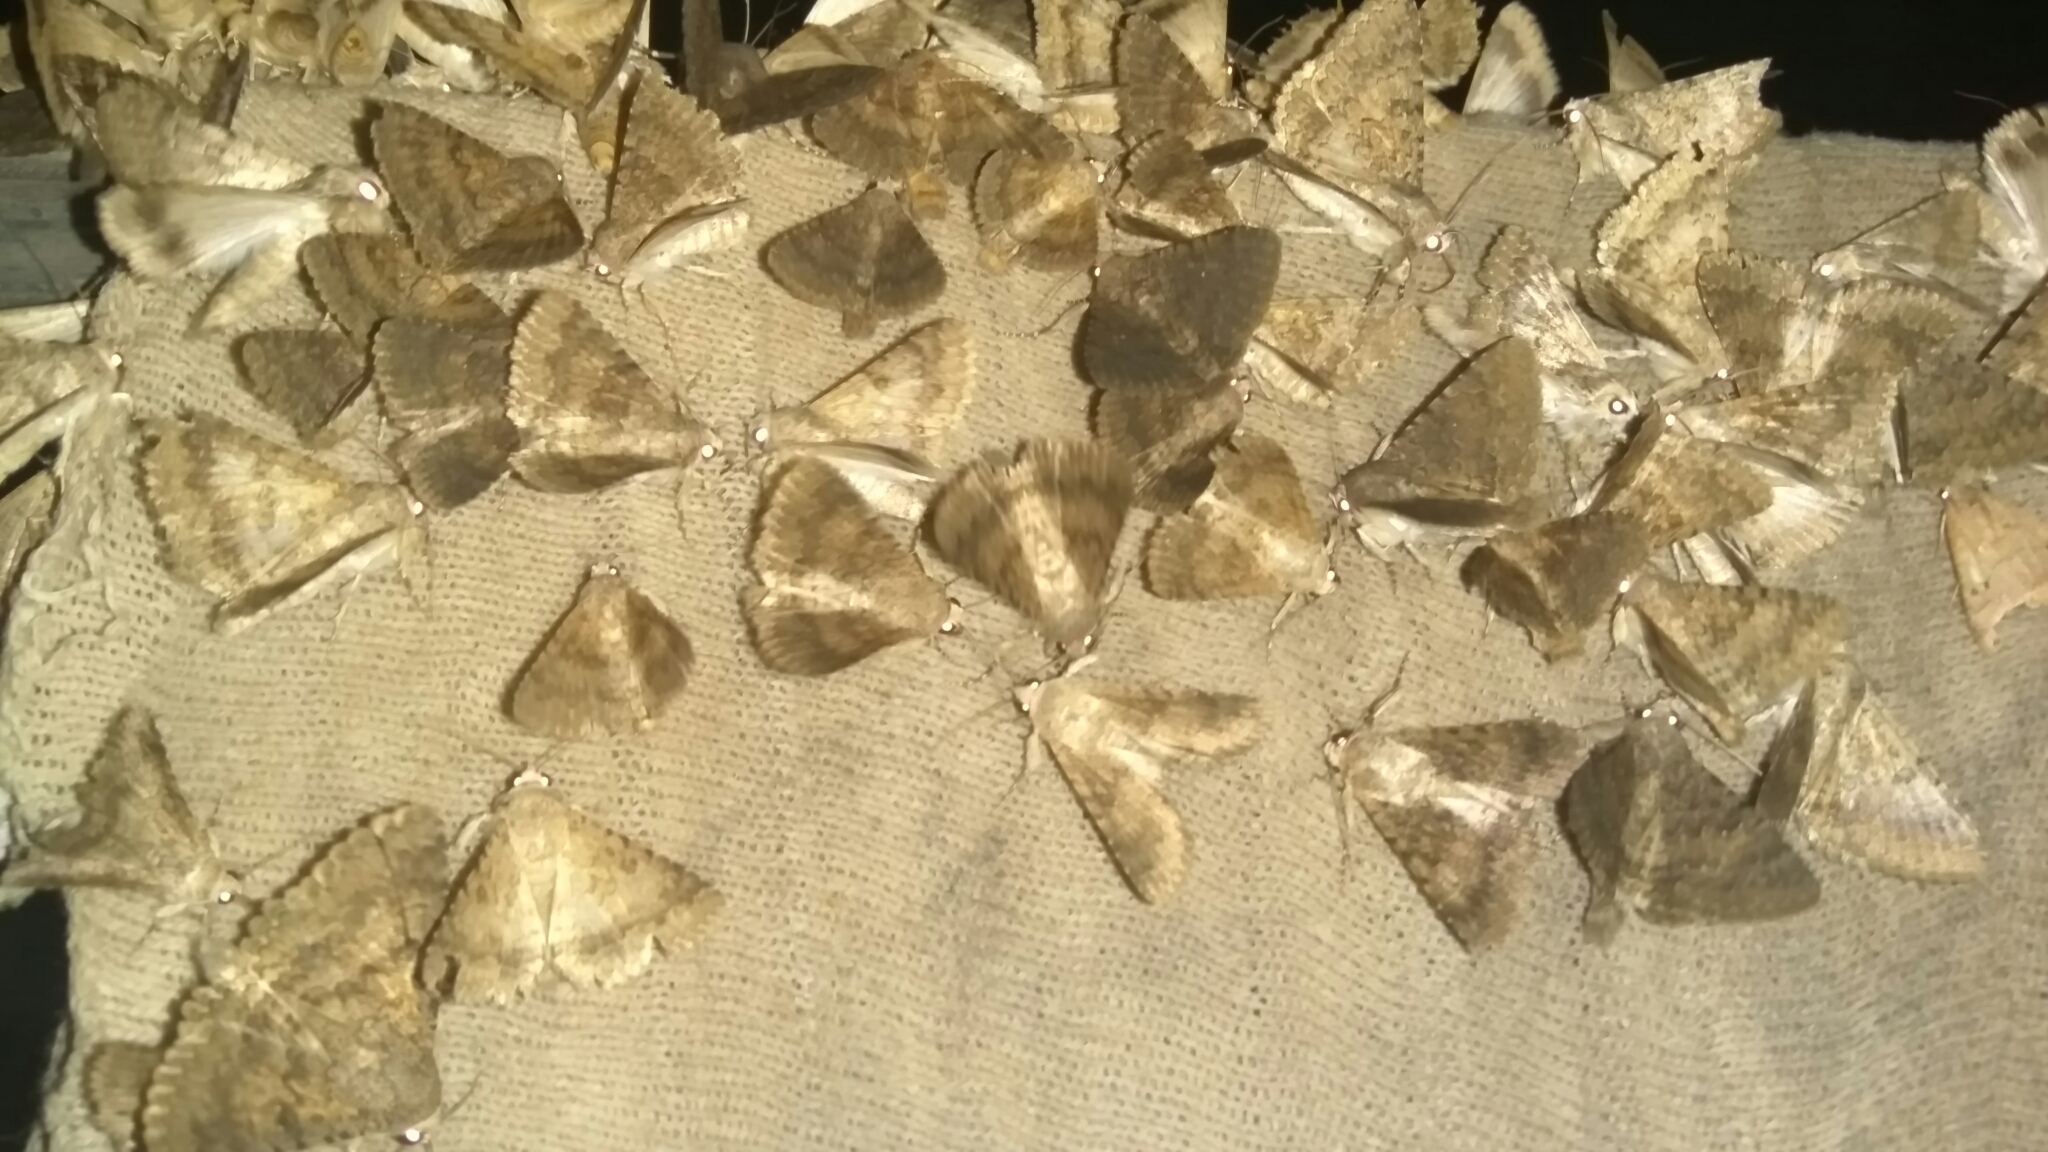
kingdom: Animalia
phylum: Arthropoda
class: Insecta
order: Lepidoptera
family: Erebidae
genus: Pandesma
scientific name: Pandesma robusta
